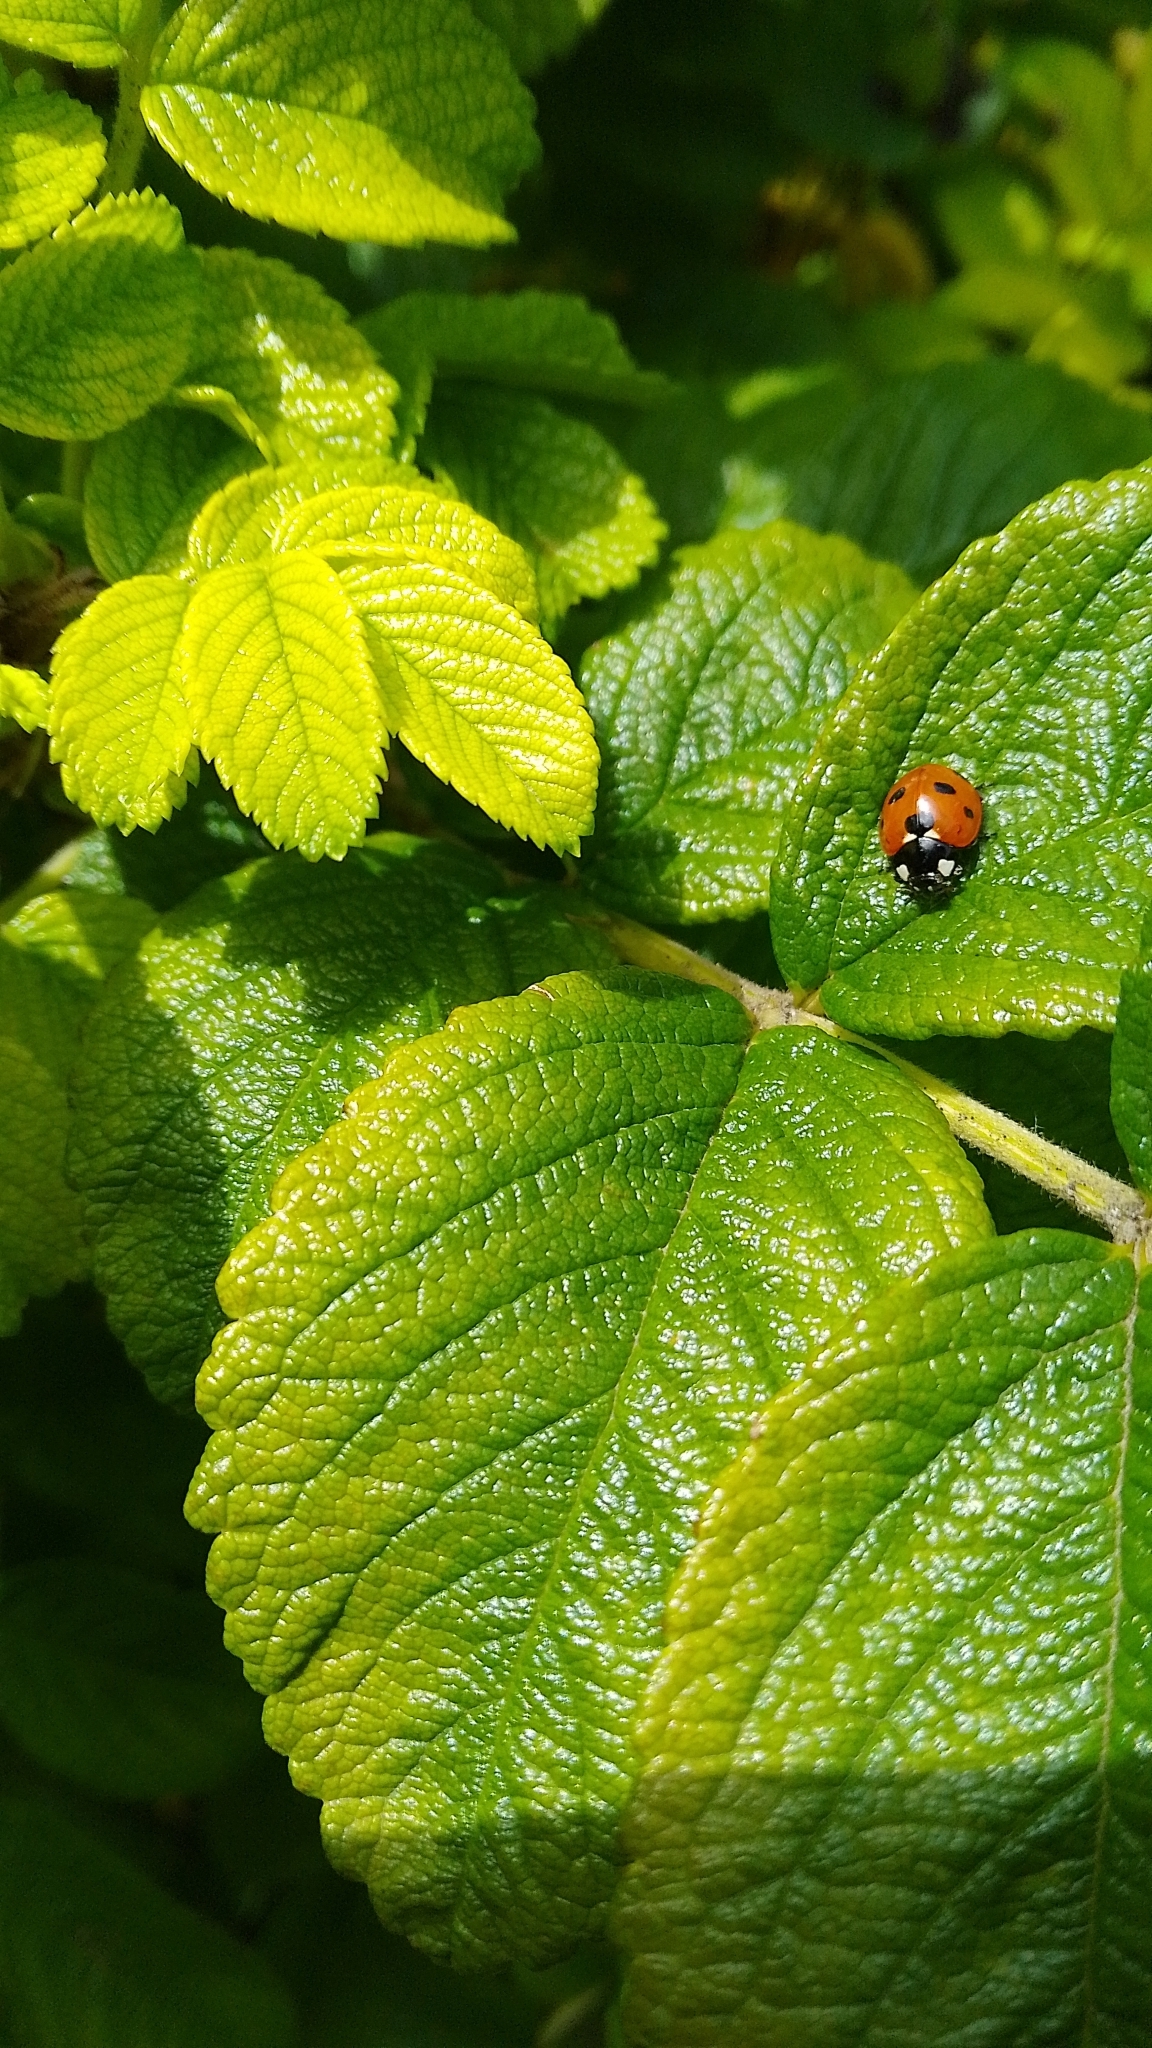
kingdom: Animalia
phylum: Arthropoda
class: Insecta
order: Coleoptera
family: Coccinellidae
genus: Coccinella
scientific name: Coccinella septempunctata
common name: Sevenspotted lady beetle
